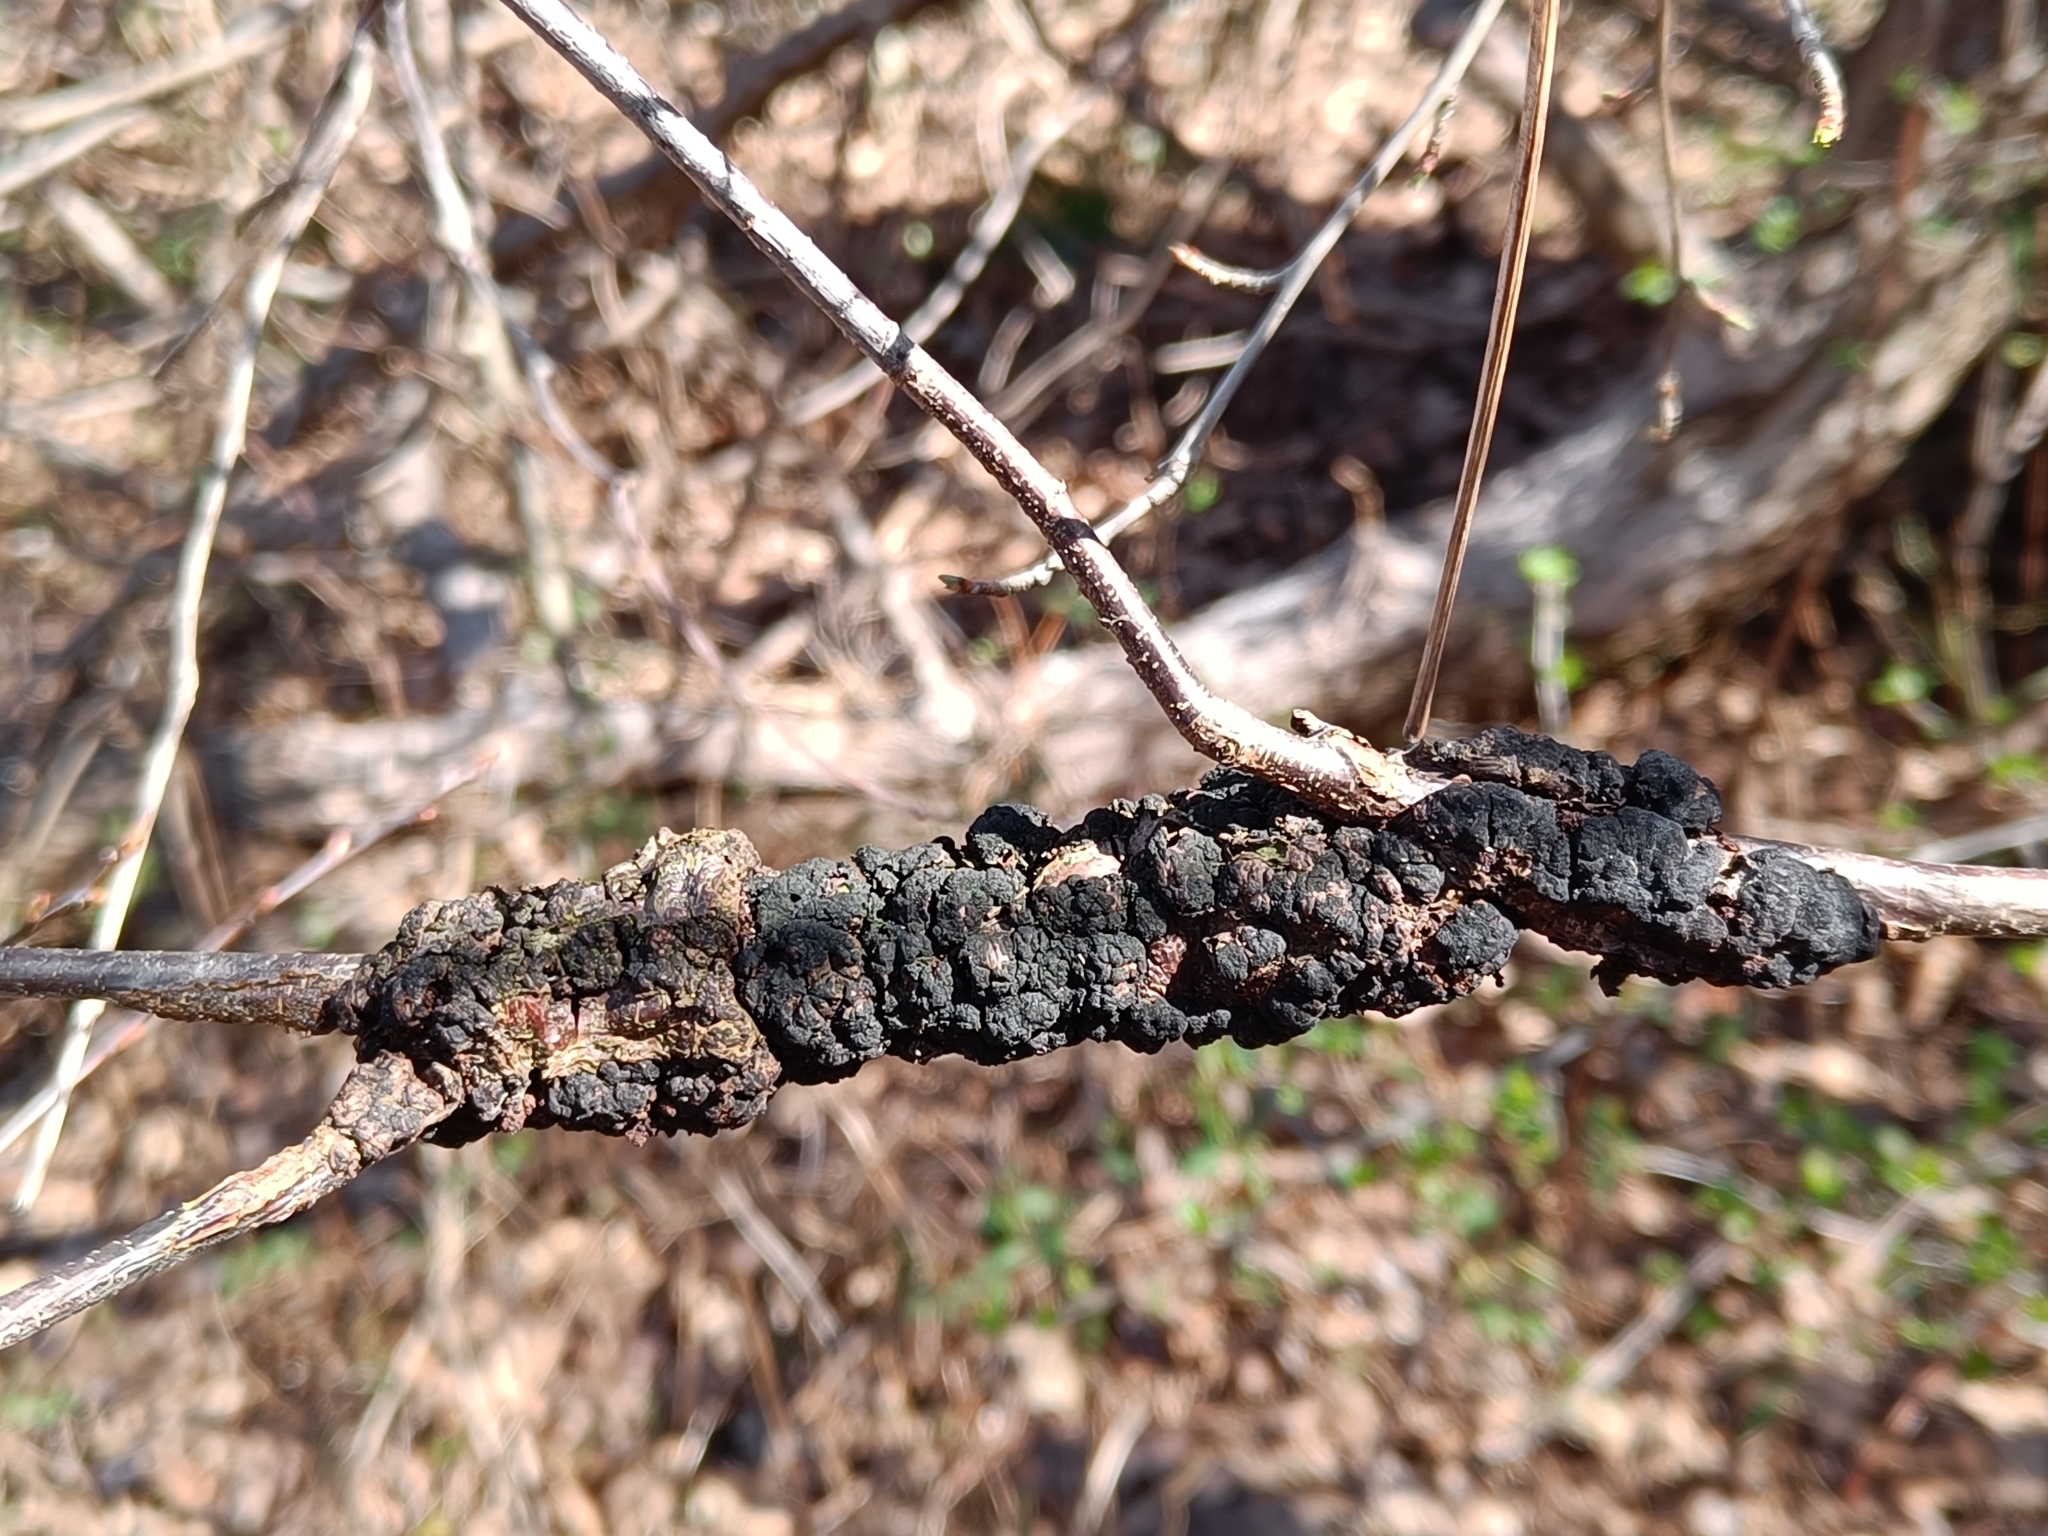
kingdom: Fungi
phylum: Ascomycota
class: Dothideomycetes
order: Venturiales
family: Venturiaceae
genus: Apiosporina
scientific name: Apiosporina morbosa
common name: Black knot
